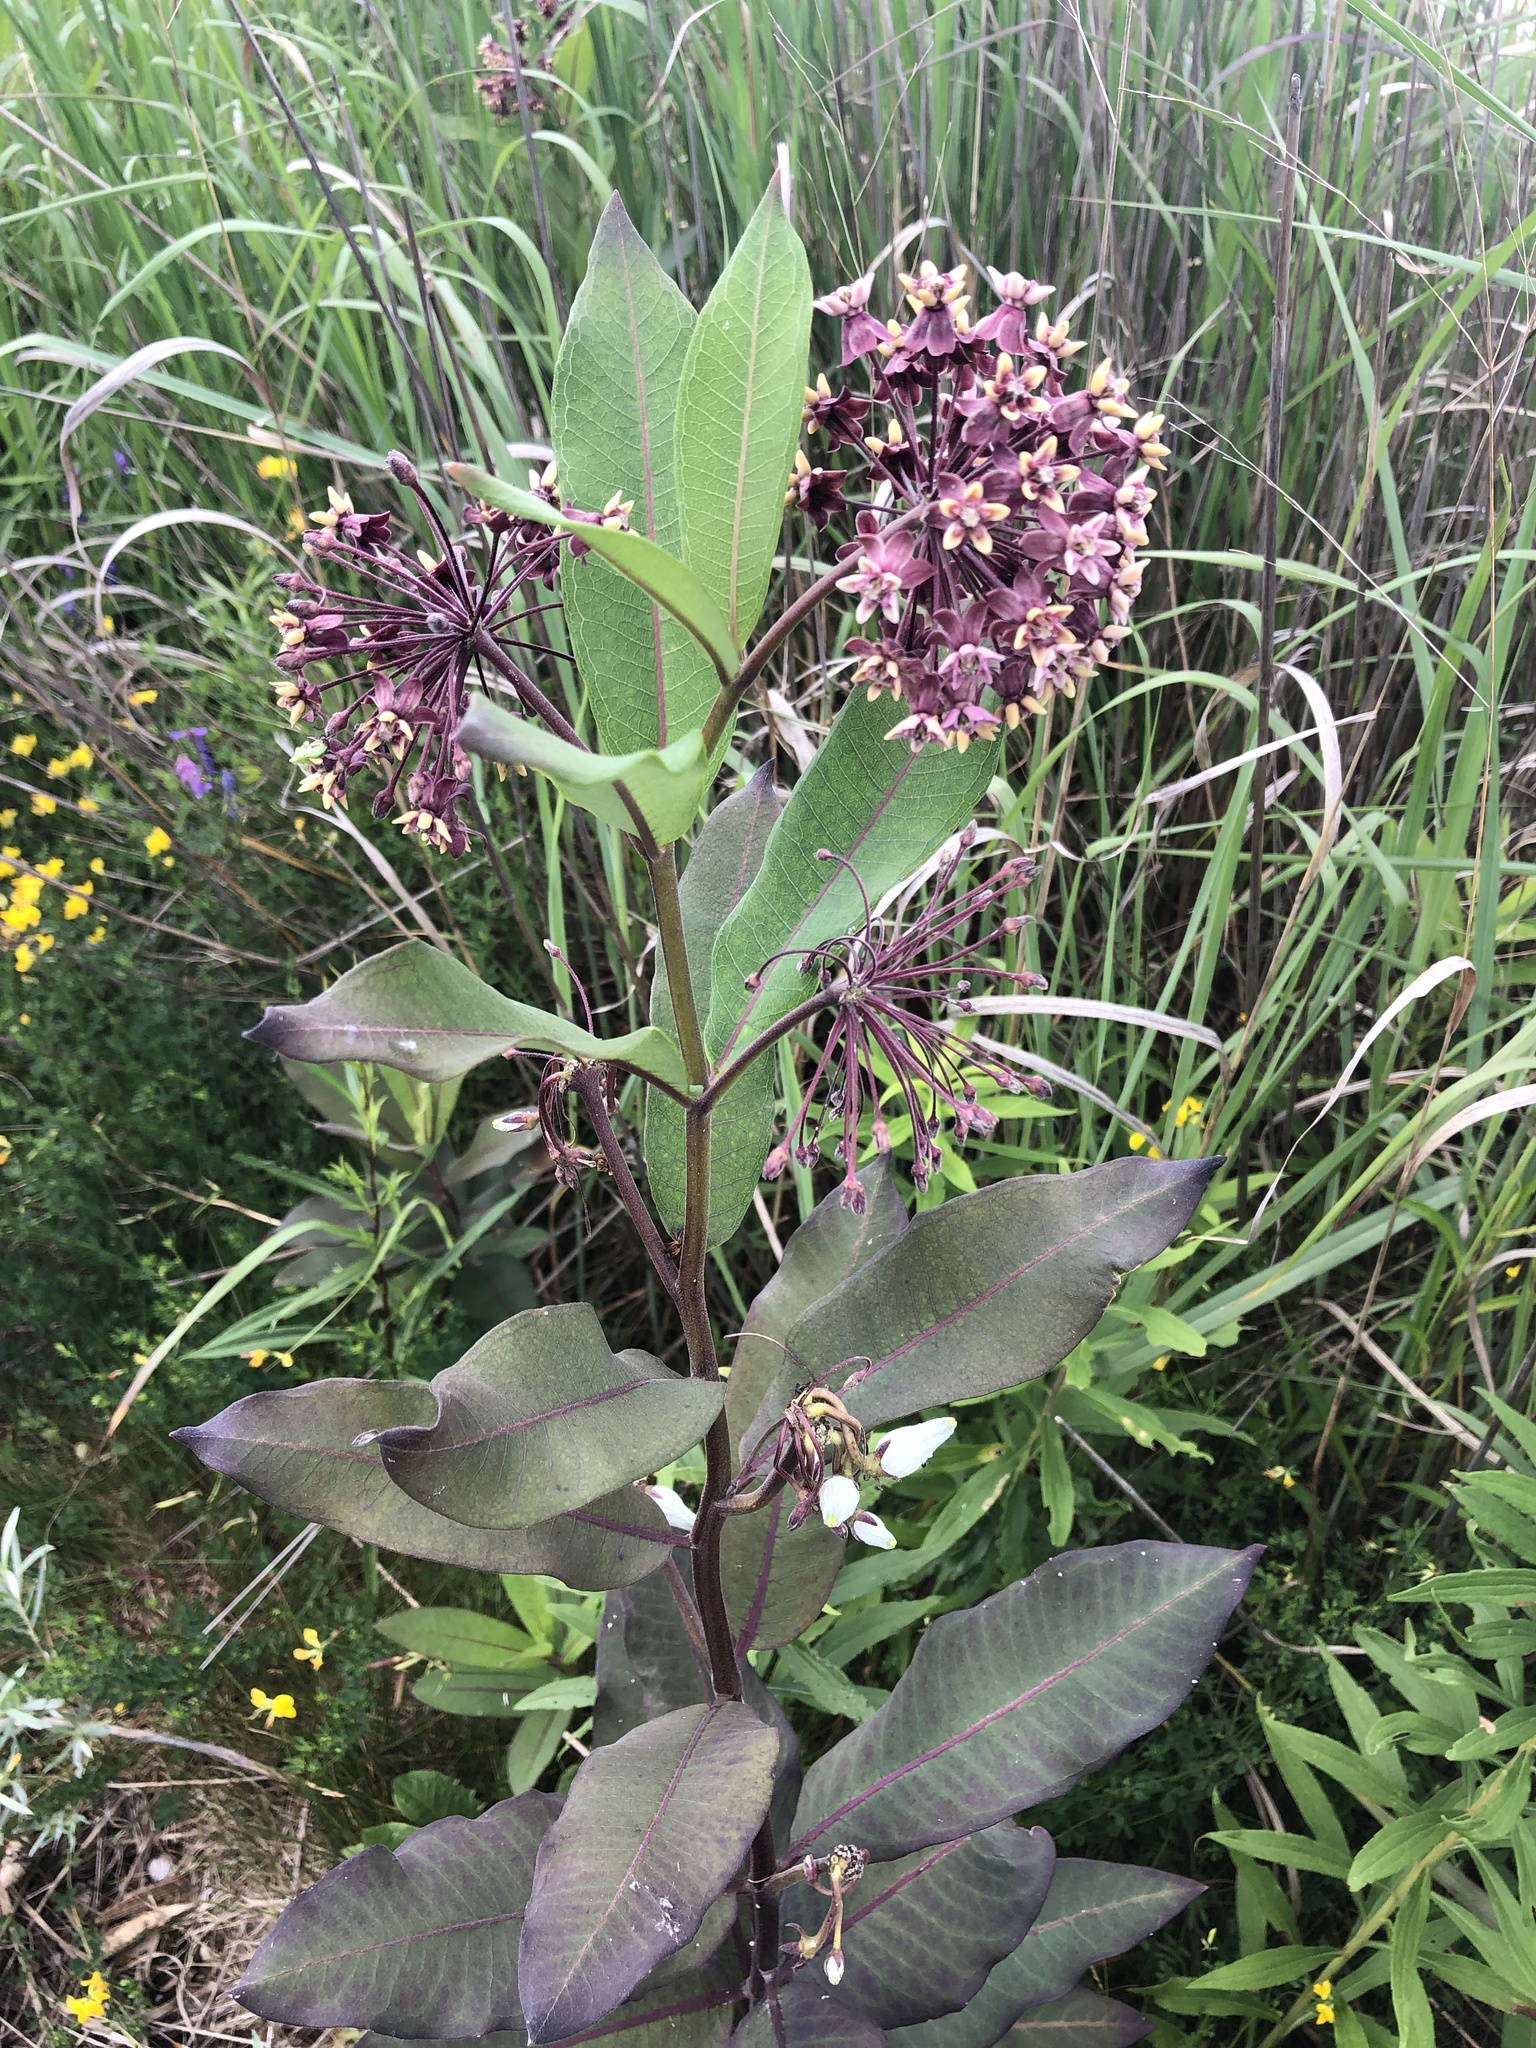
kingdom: Plantae
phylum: Tracheophyta
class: Magnoliopsida
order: Gentianales
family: Apocynaceae
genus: Asclepias
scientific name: Asclepias syriaca
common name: Common milkweed
